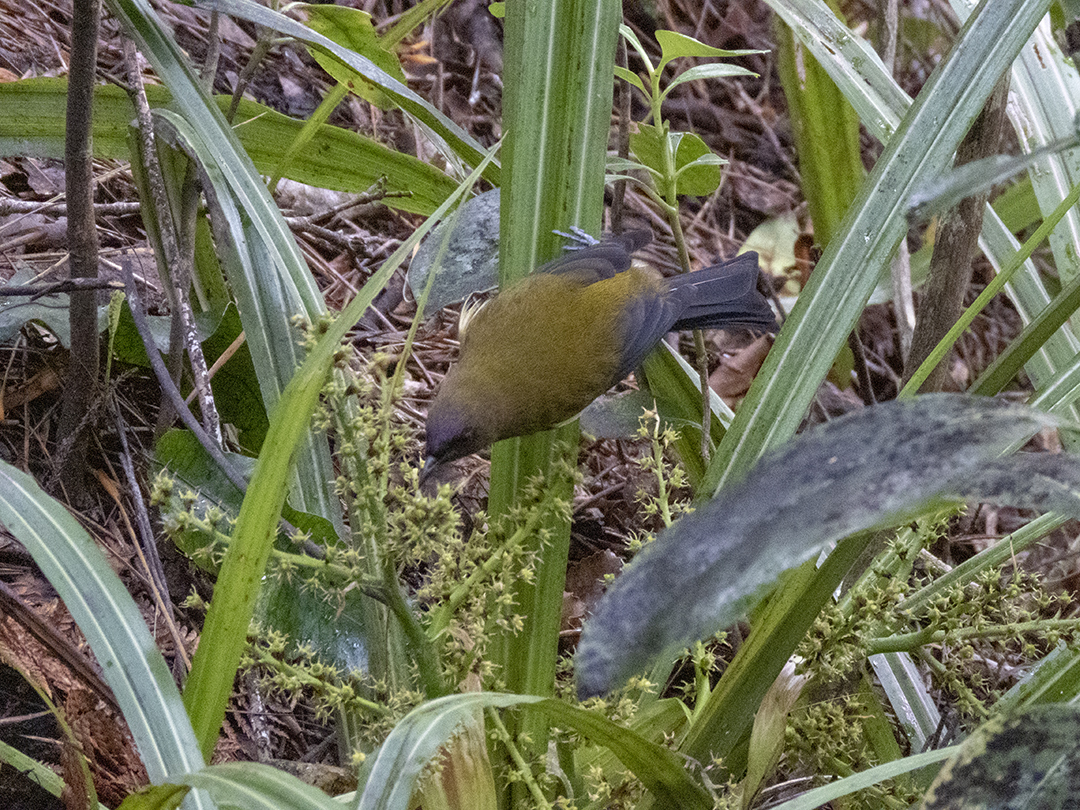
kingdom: Animalia
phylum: Chordata
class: Aves
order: Passeriformes
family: Meliphagidae
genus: Anthornis
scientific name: Anthornis melanura
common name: New zealand bellbird
